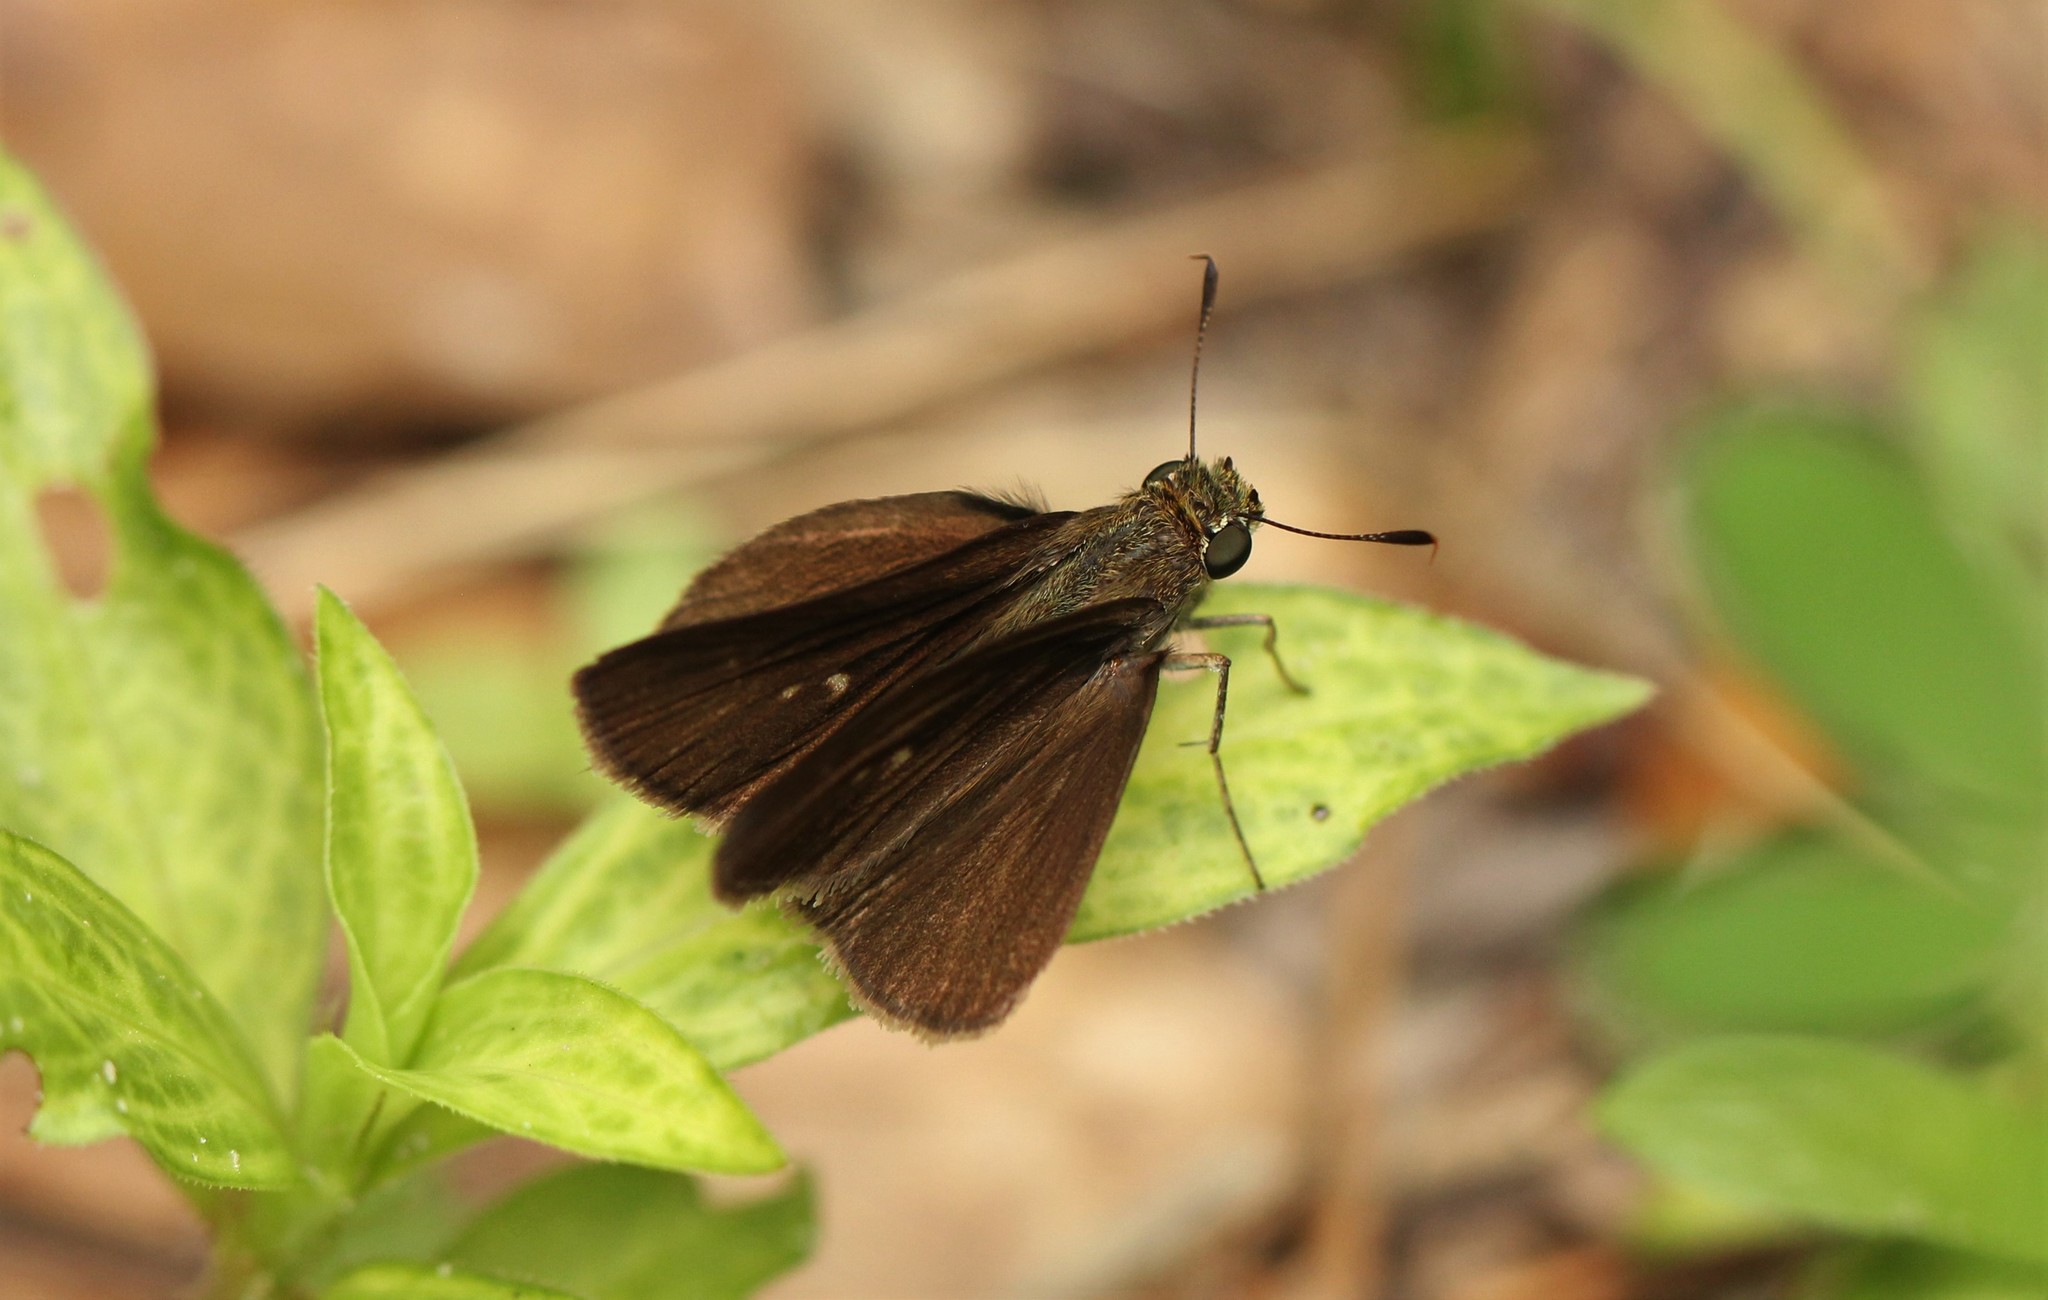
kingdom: Animalia
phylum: Arthropoda
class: Insecta
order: Lepidoptera
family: Hesperiidae
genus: Euphyes
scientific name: Euphyes vestris
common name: Dun skipper
